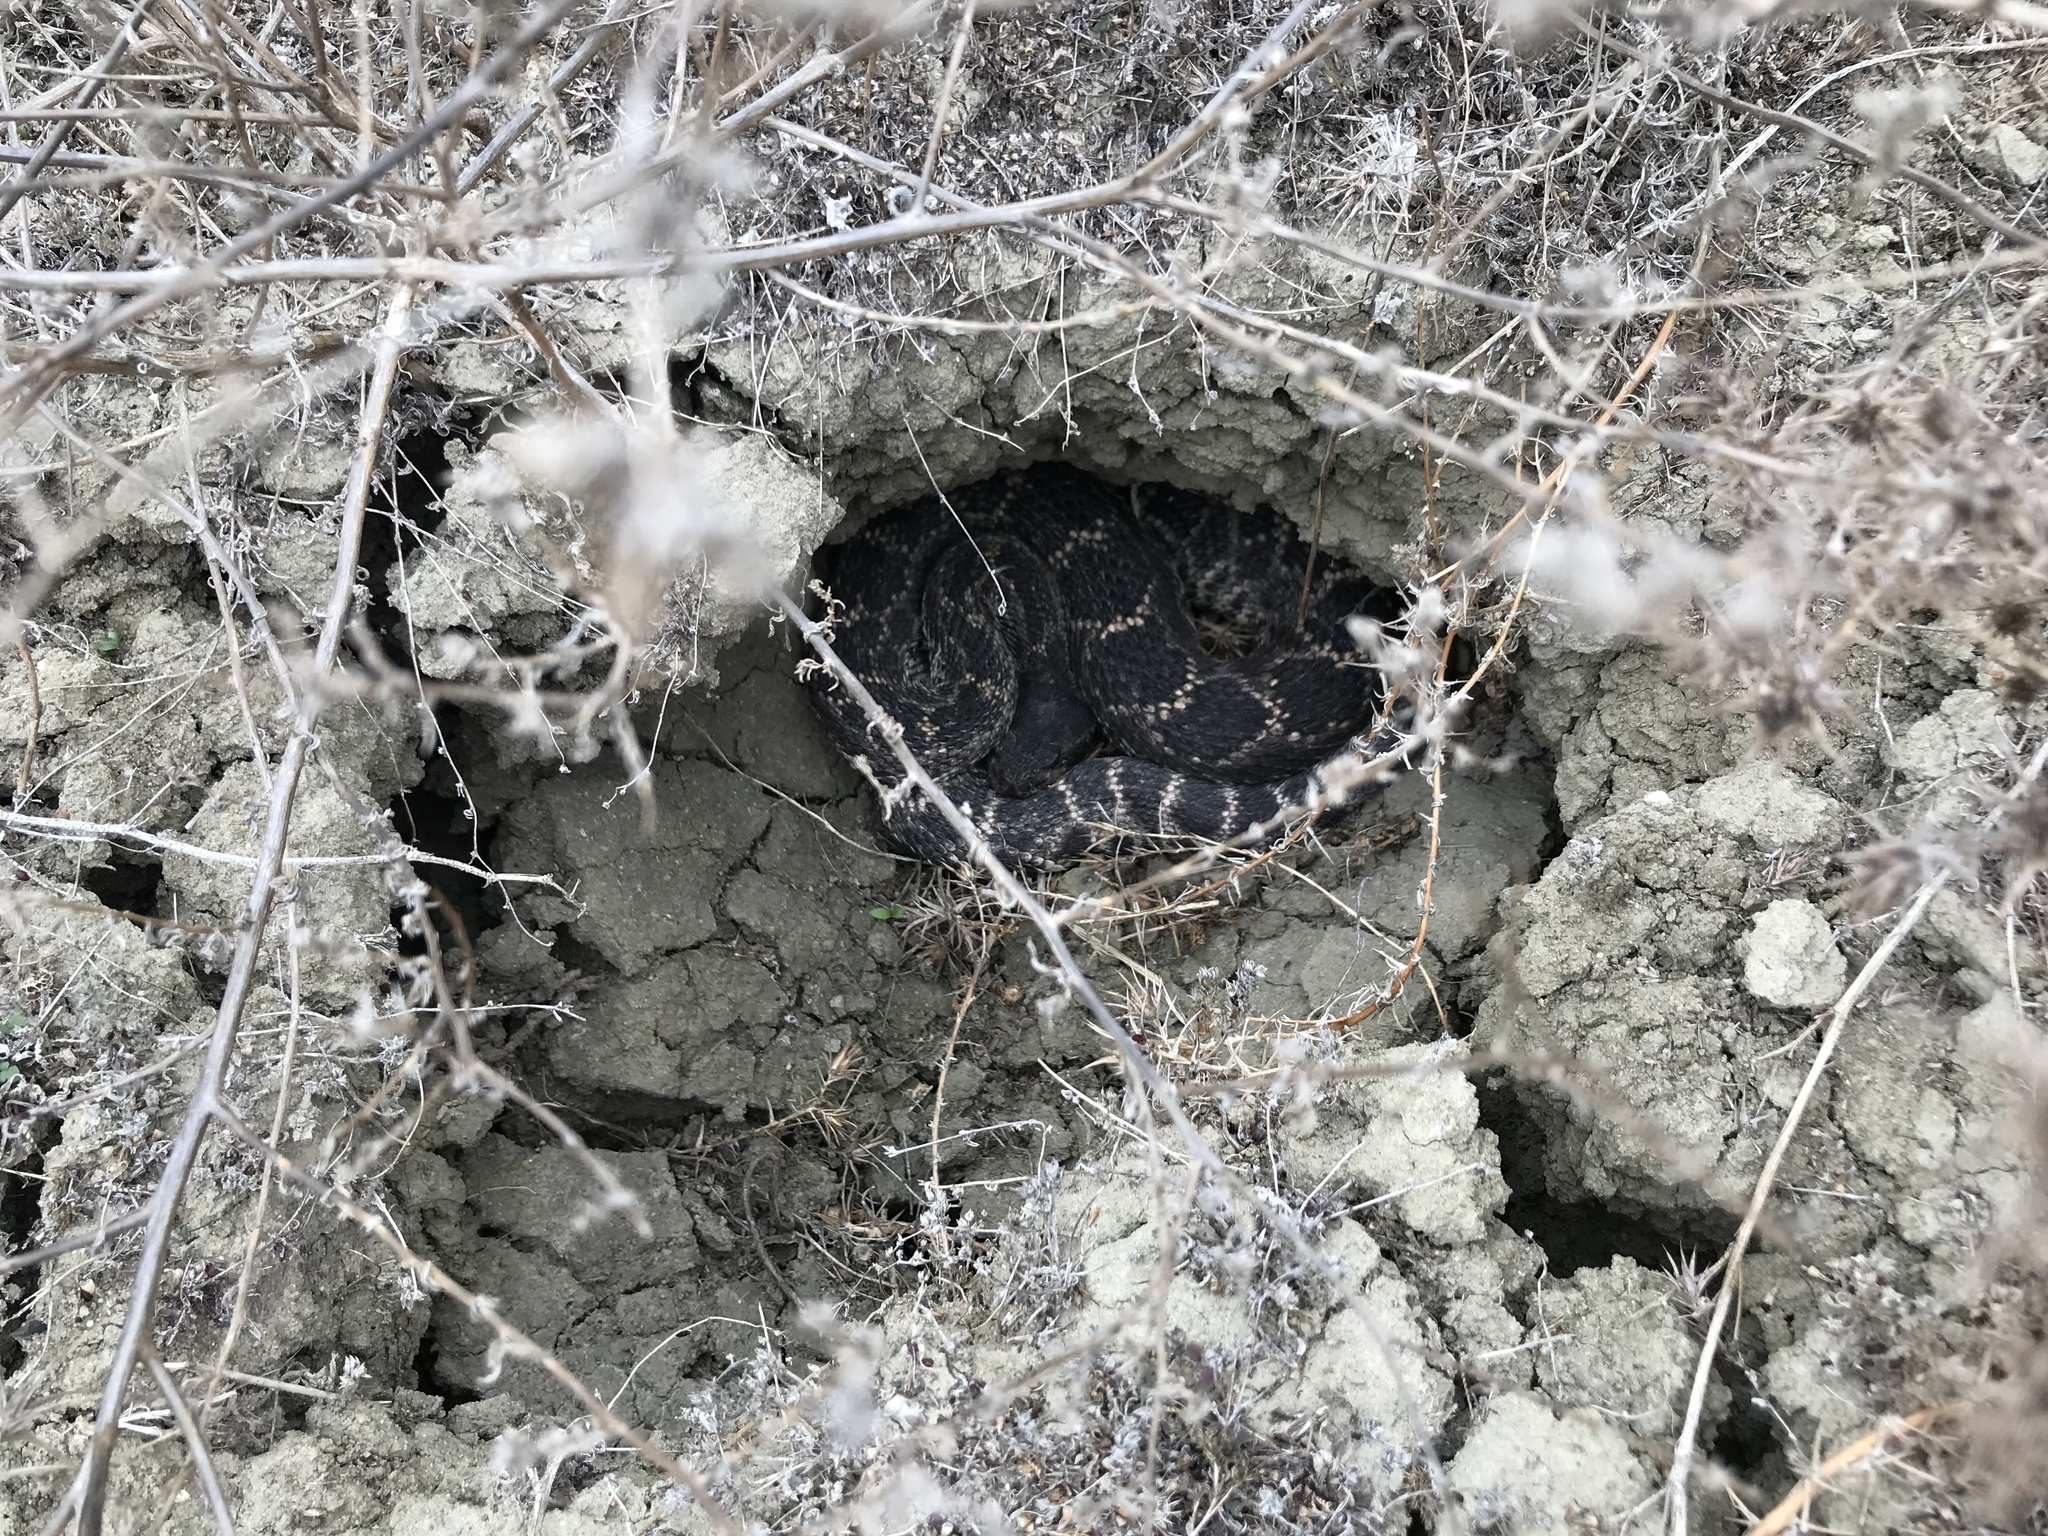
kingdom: Animalia
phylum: Chordata
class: Squamata
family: Viperidae
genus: Crotalus
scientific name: Crotalus oreganus
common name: Abyssus
